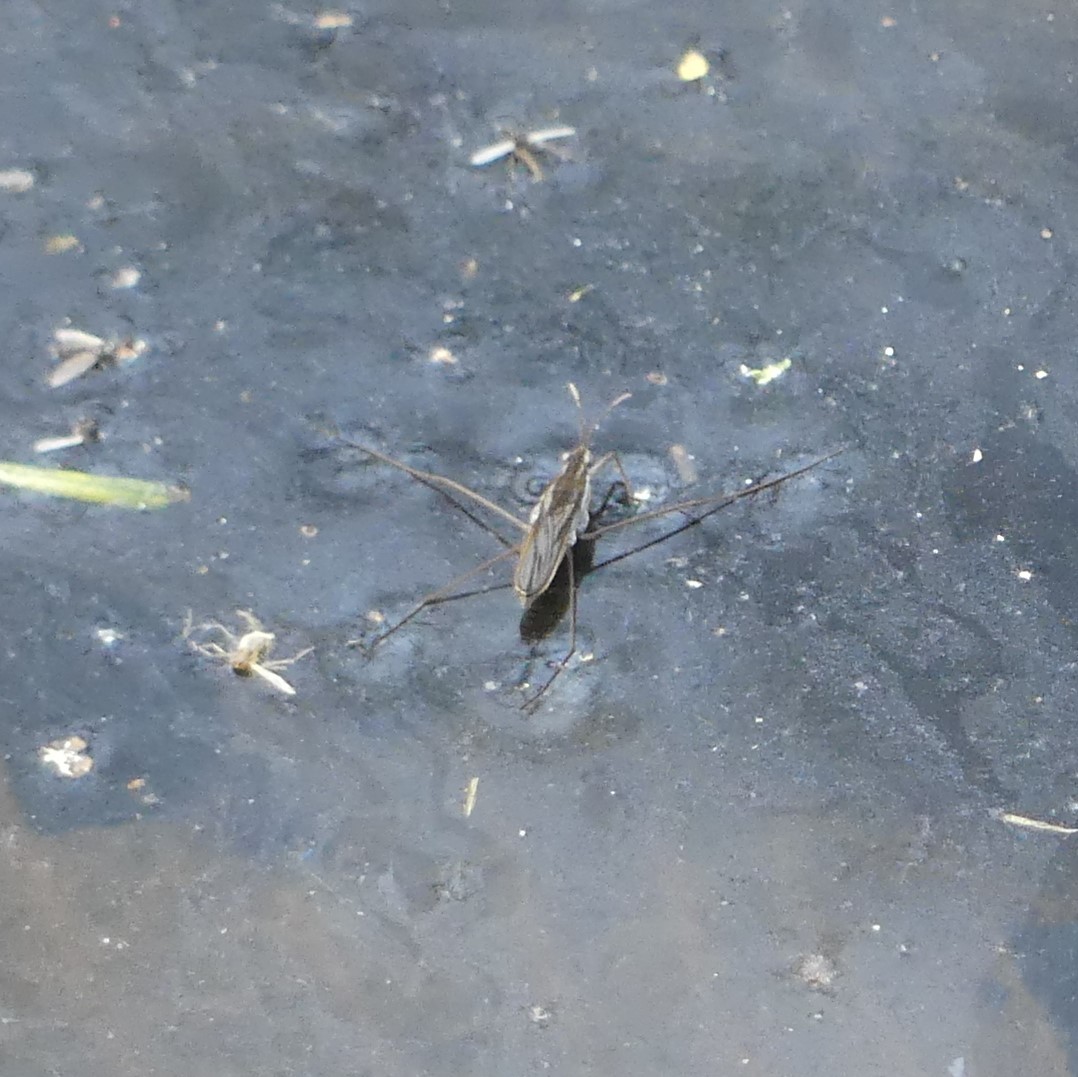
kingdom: Animalia
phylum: Arthropoda
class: Insecta
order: Hemiptera
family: Gerridae
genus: Gerris
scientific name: Gerris
